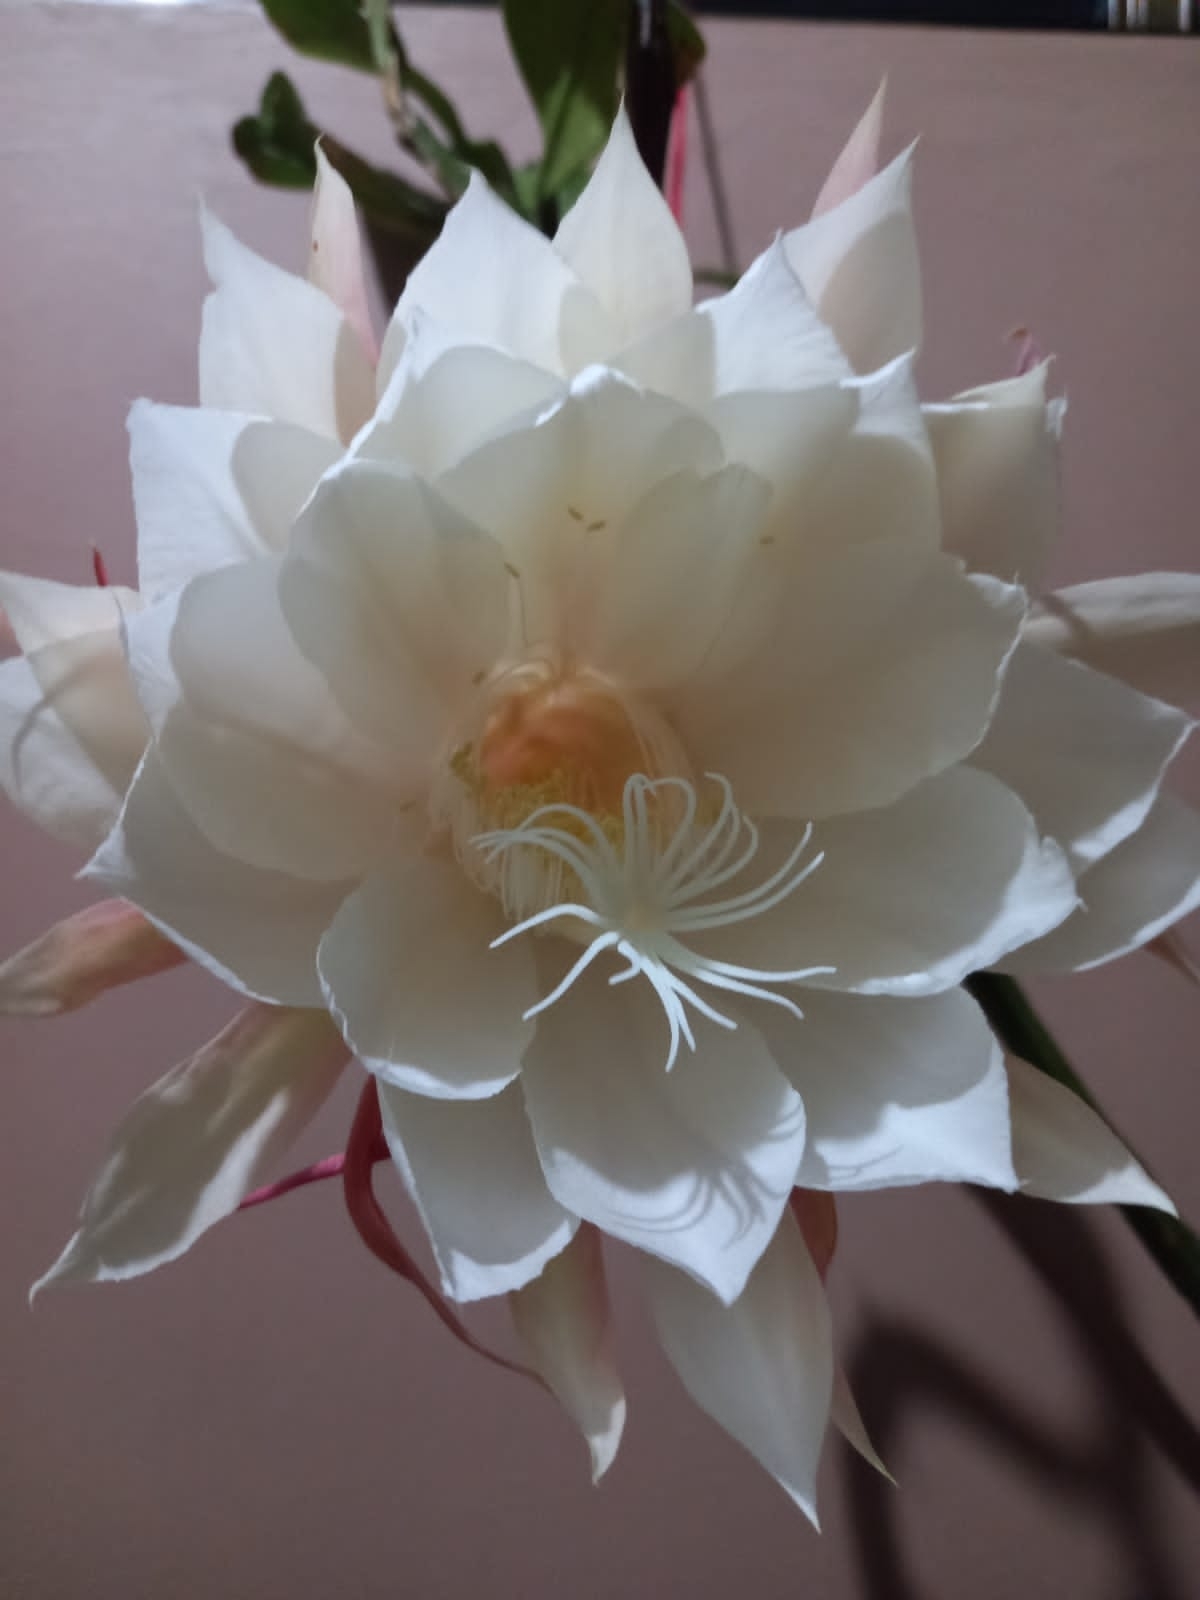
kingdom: Plantae
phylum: Tracheophyta
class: Magnoliopsida
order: Caryophyllales
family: Cactaceae
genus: Epiphyllum
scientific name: Epiphyllum oxypetalum
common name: Dutchman's pipe cactus
